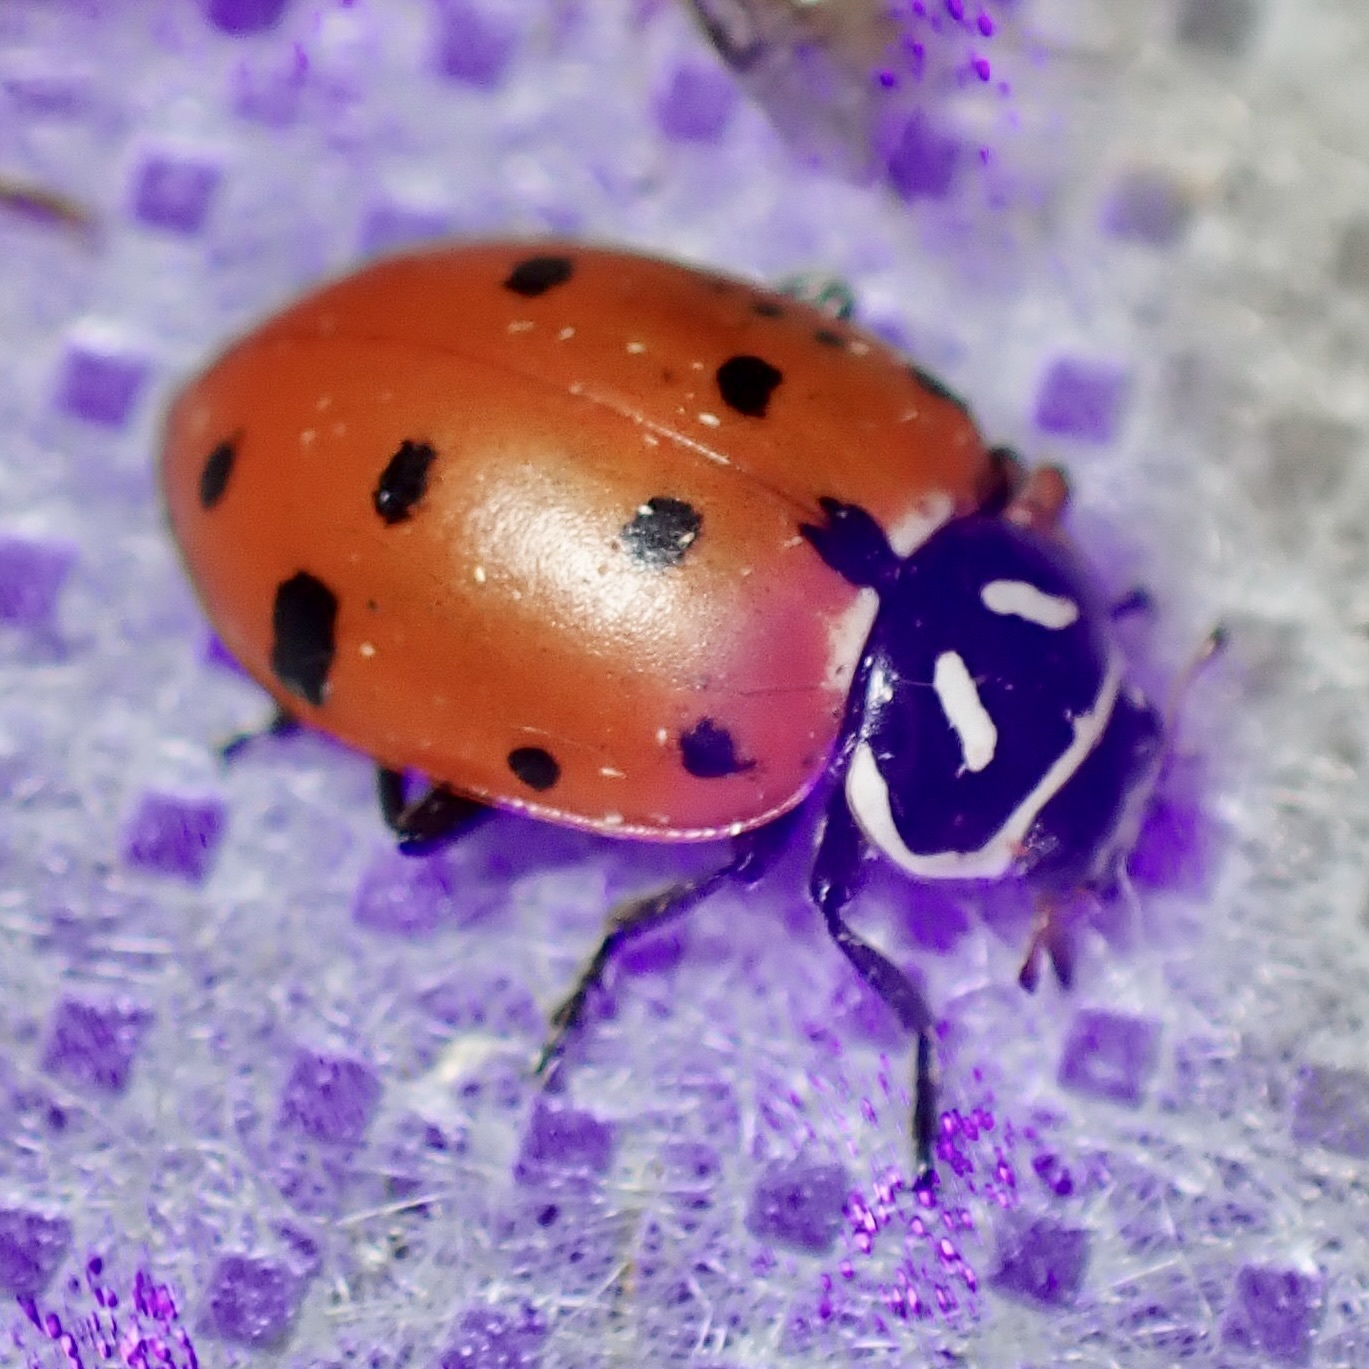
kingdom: Animalia
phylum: Arthropoda
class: Insecta
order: Coleoptera
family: Coccinellidae
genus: Hippodamia
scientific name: Hippodamia convergens
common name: Convergent lady beetle
